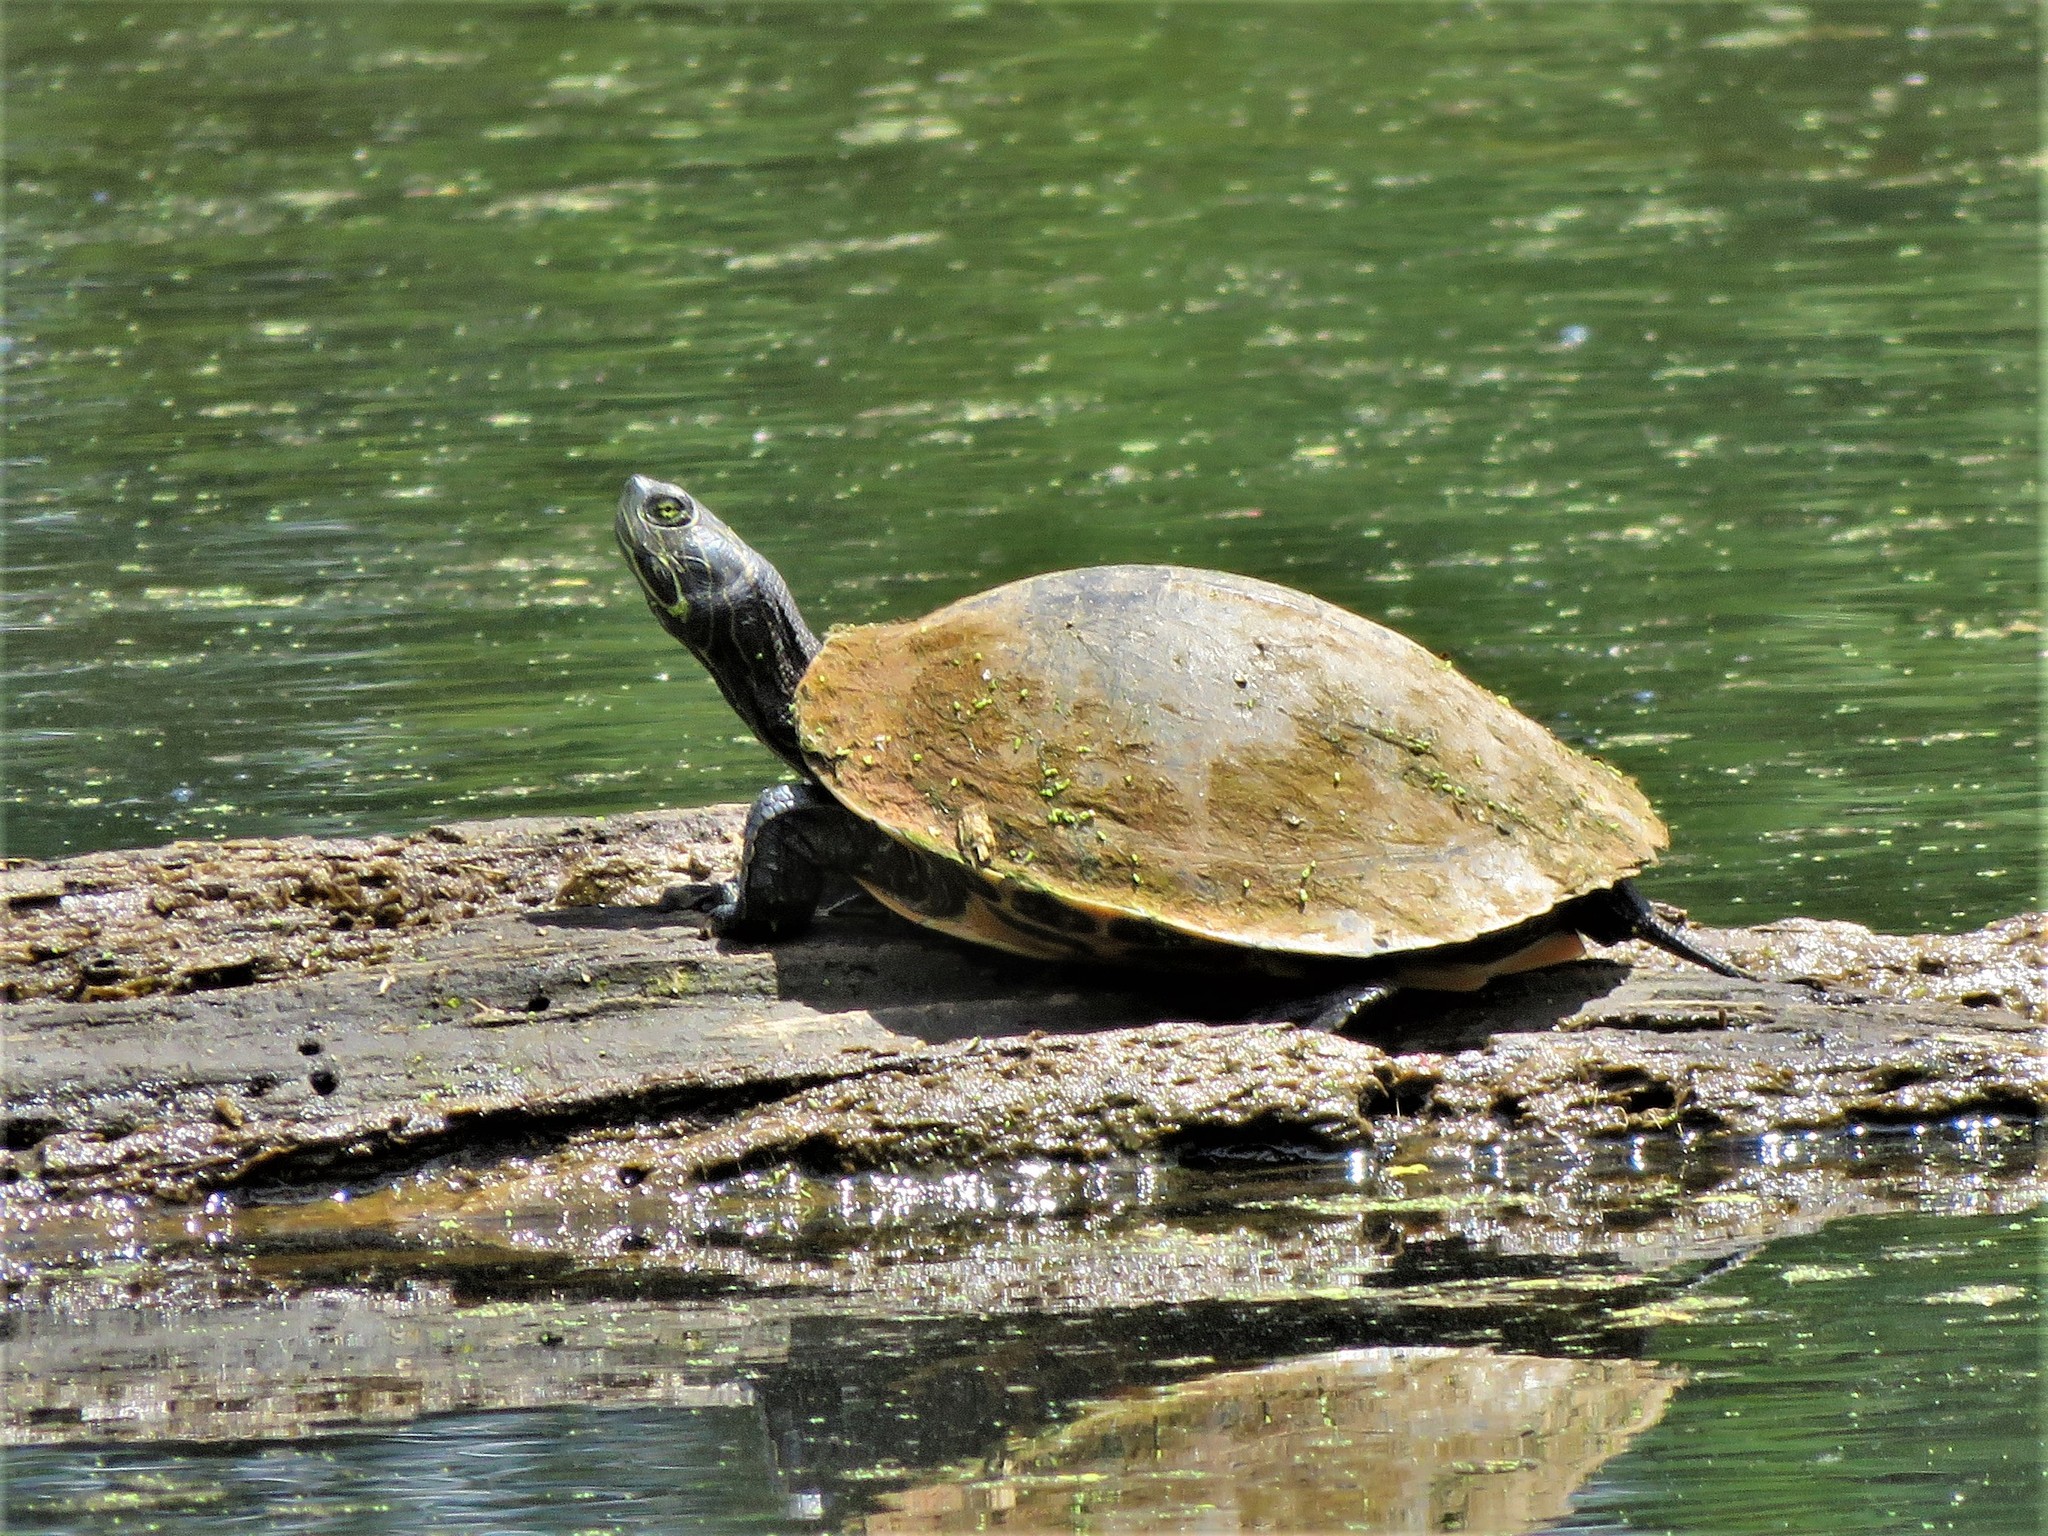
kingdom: Animalia
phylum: Chordata
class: Testudines
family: Emydidae
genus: Pseudemys
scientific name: Pseudemys concinna
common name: Eastern river cooter
